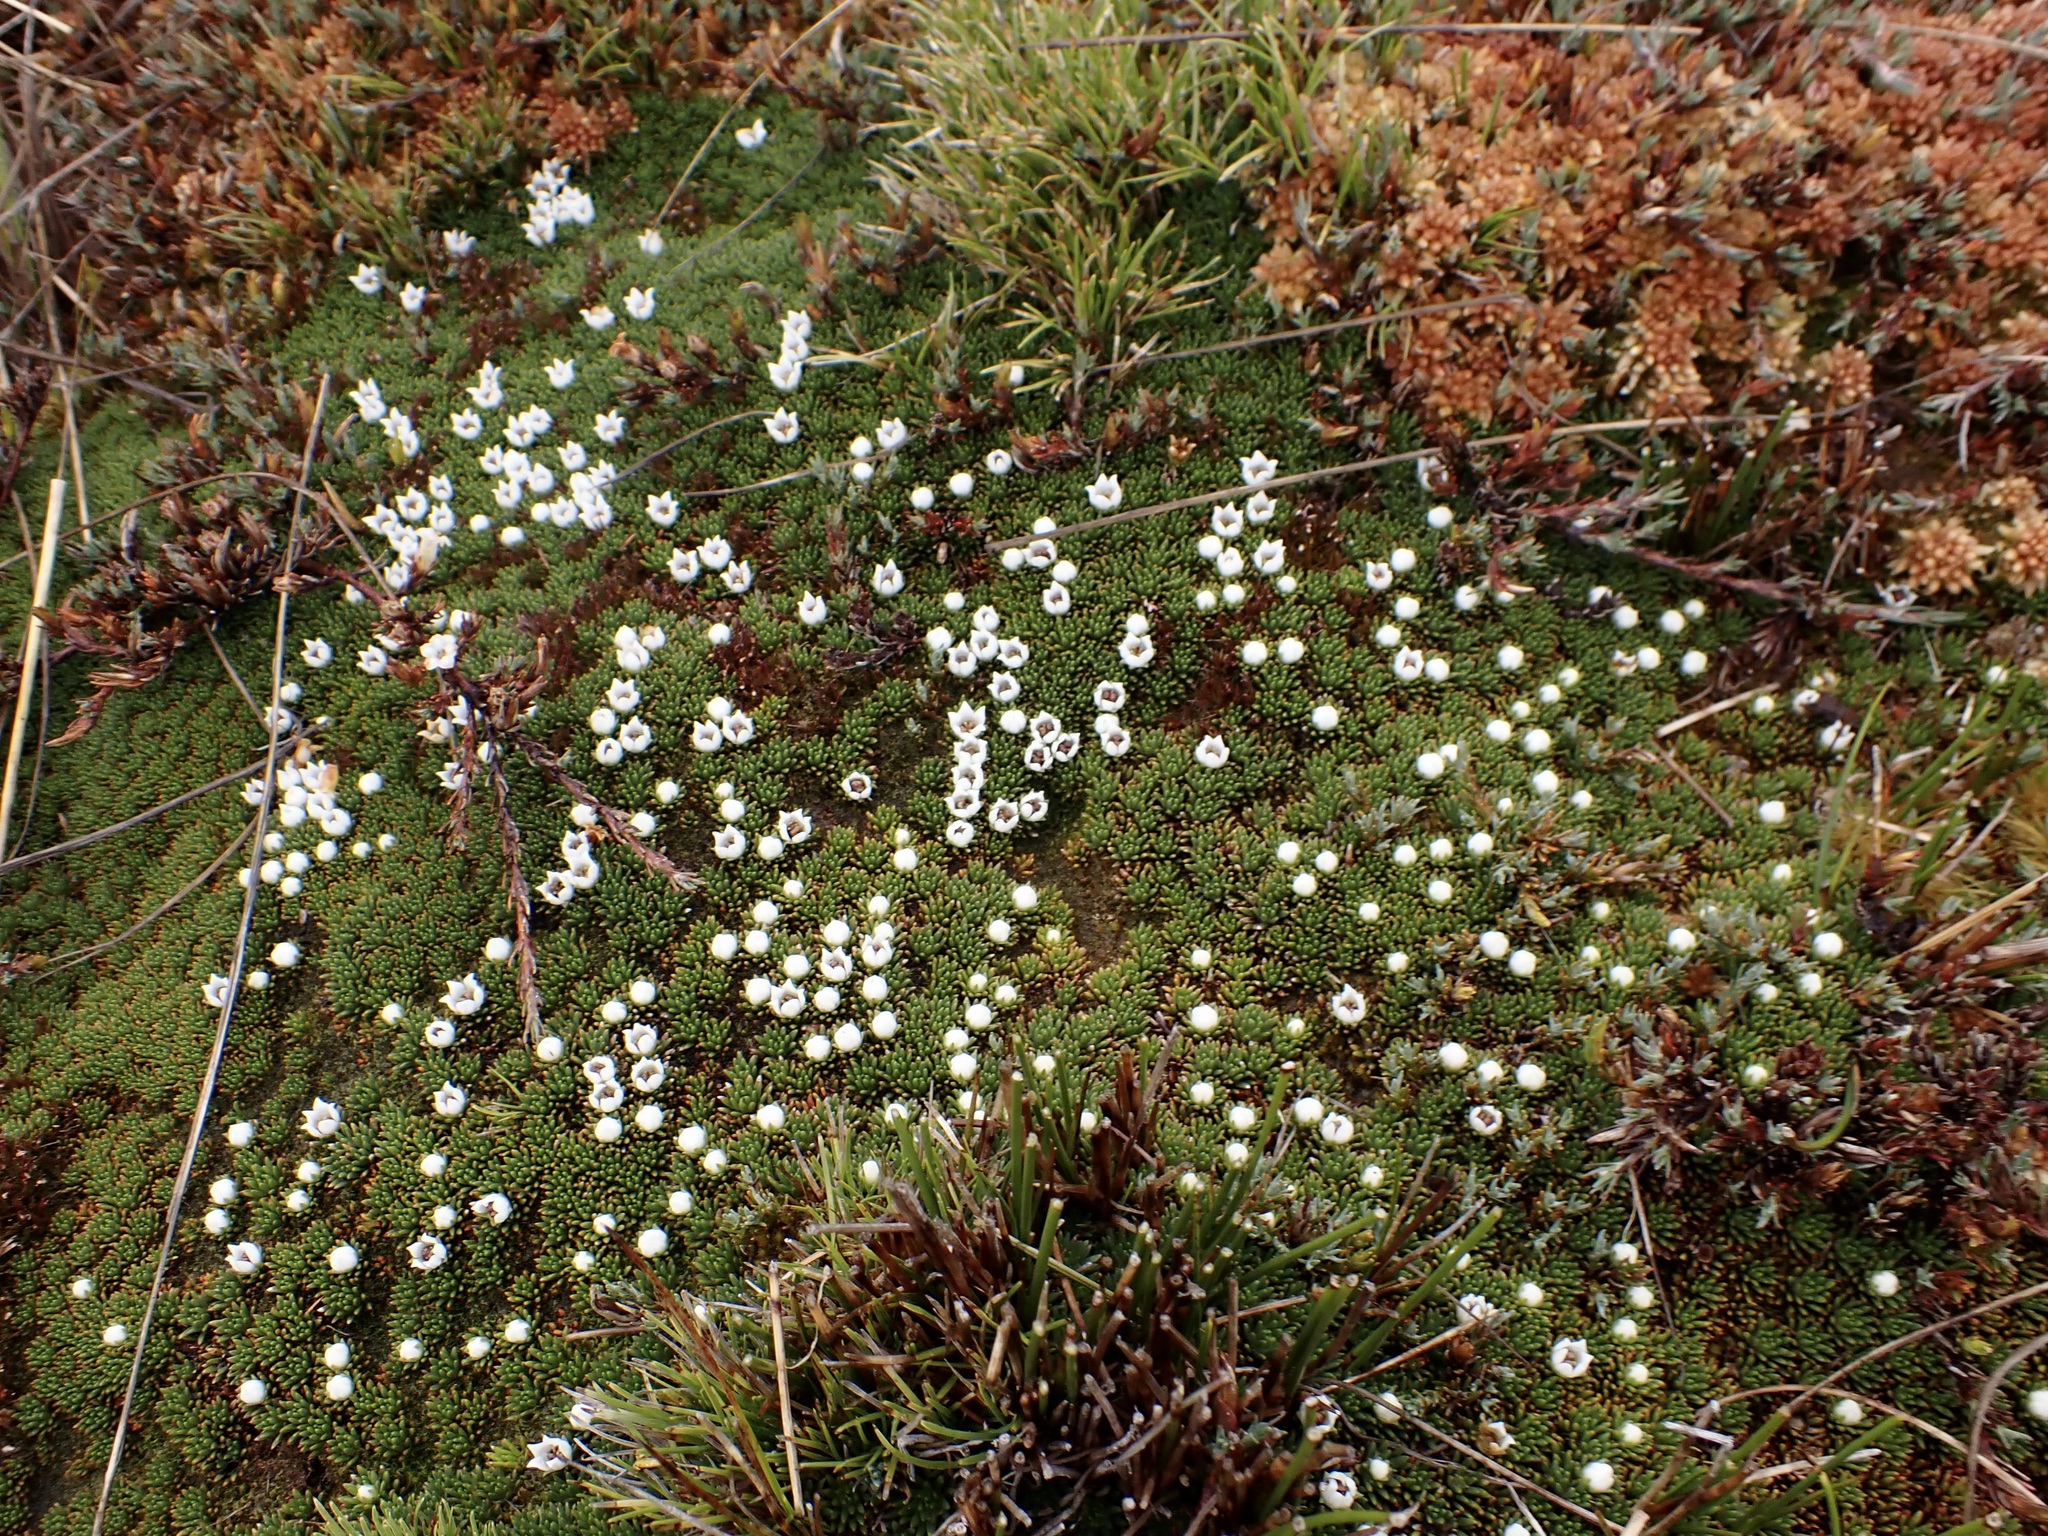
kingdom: Plantae
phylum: Tracheophyta
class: Magnoliopsida
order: Asterales
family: Stylidiaceae
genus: Donatia
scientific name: Donatia novae-zelandiae
